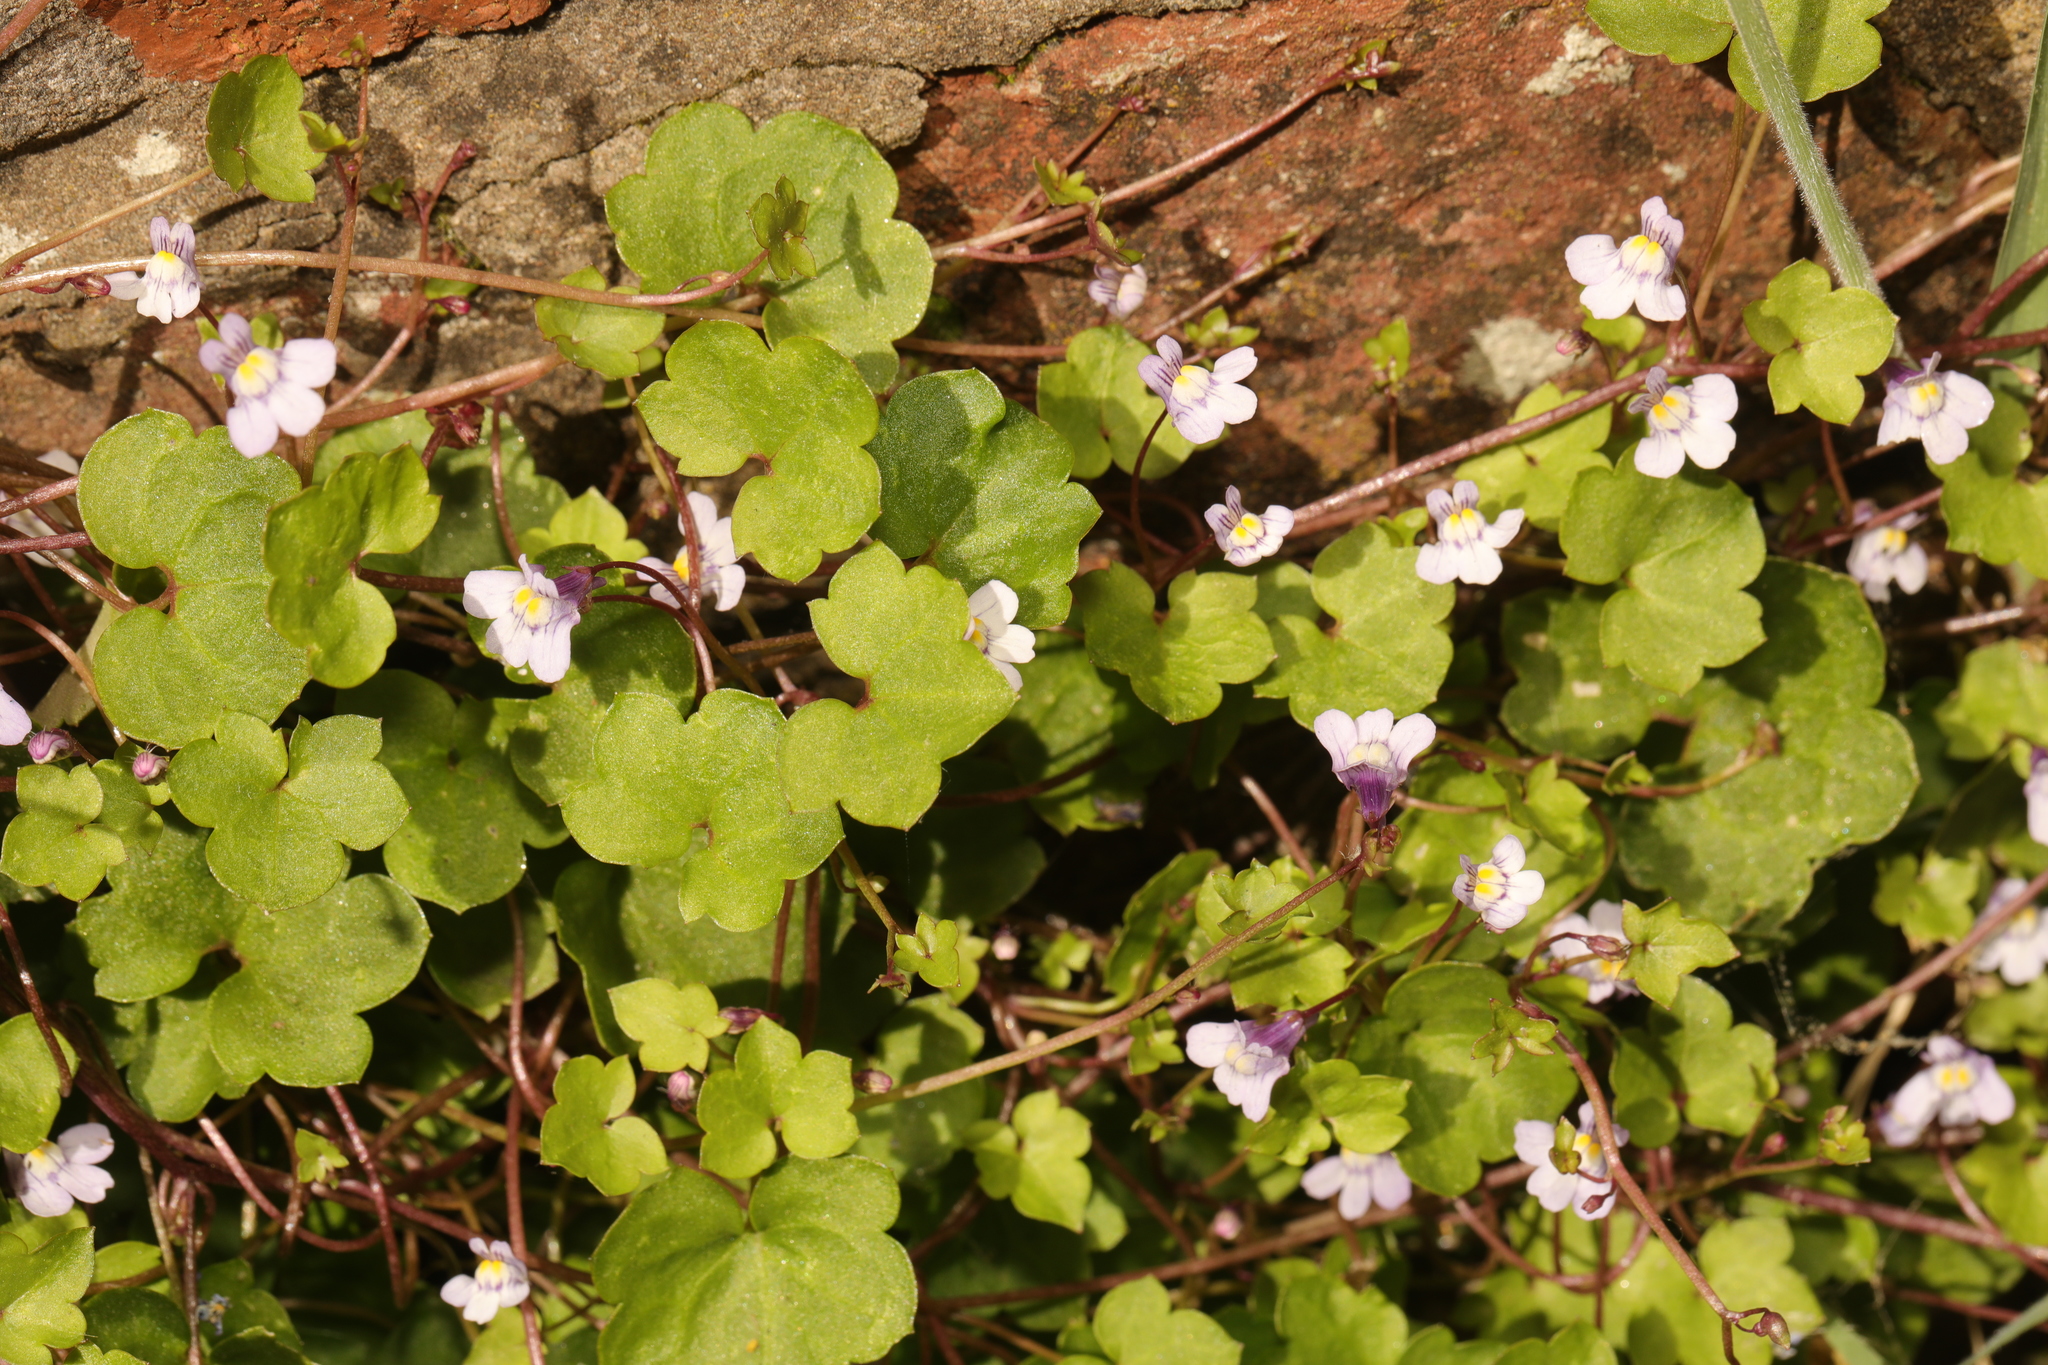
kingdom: Plantae
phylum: Tracheophyta
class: Magnoliopsida
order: Lamiales
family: Plantaginaceae
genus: Cymbalaria
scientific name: Cymbalaria muralis
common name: Ivy-leaved toadflax
